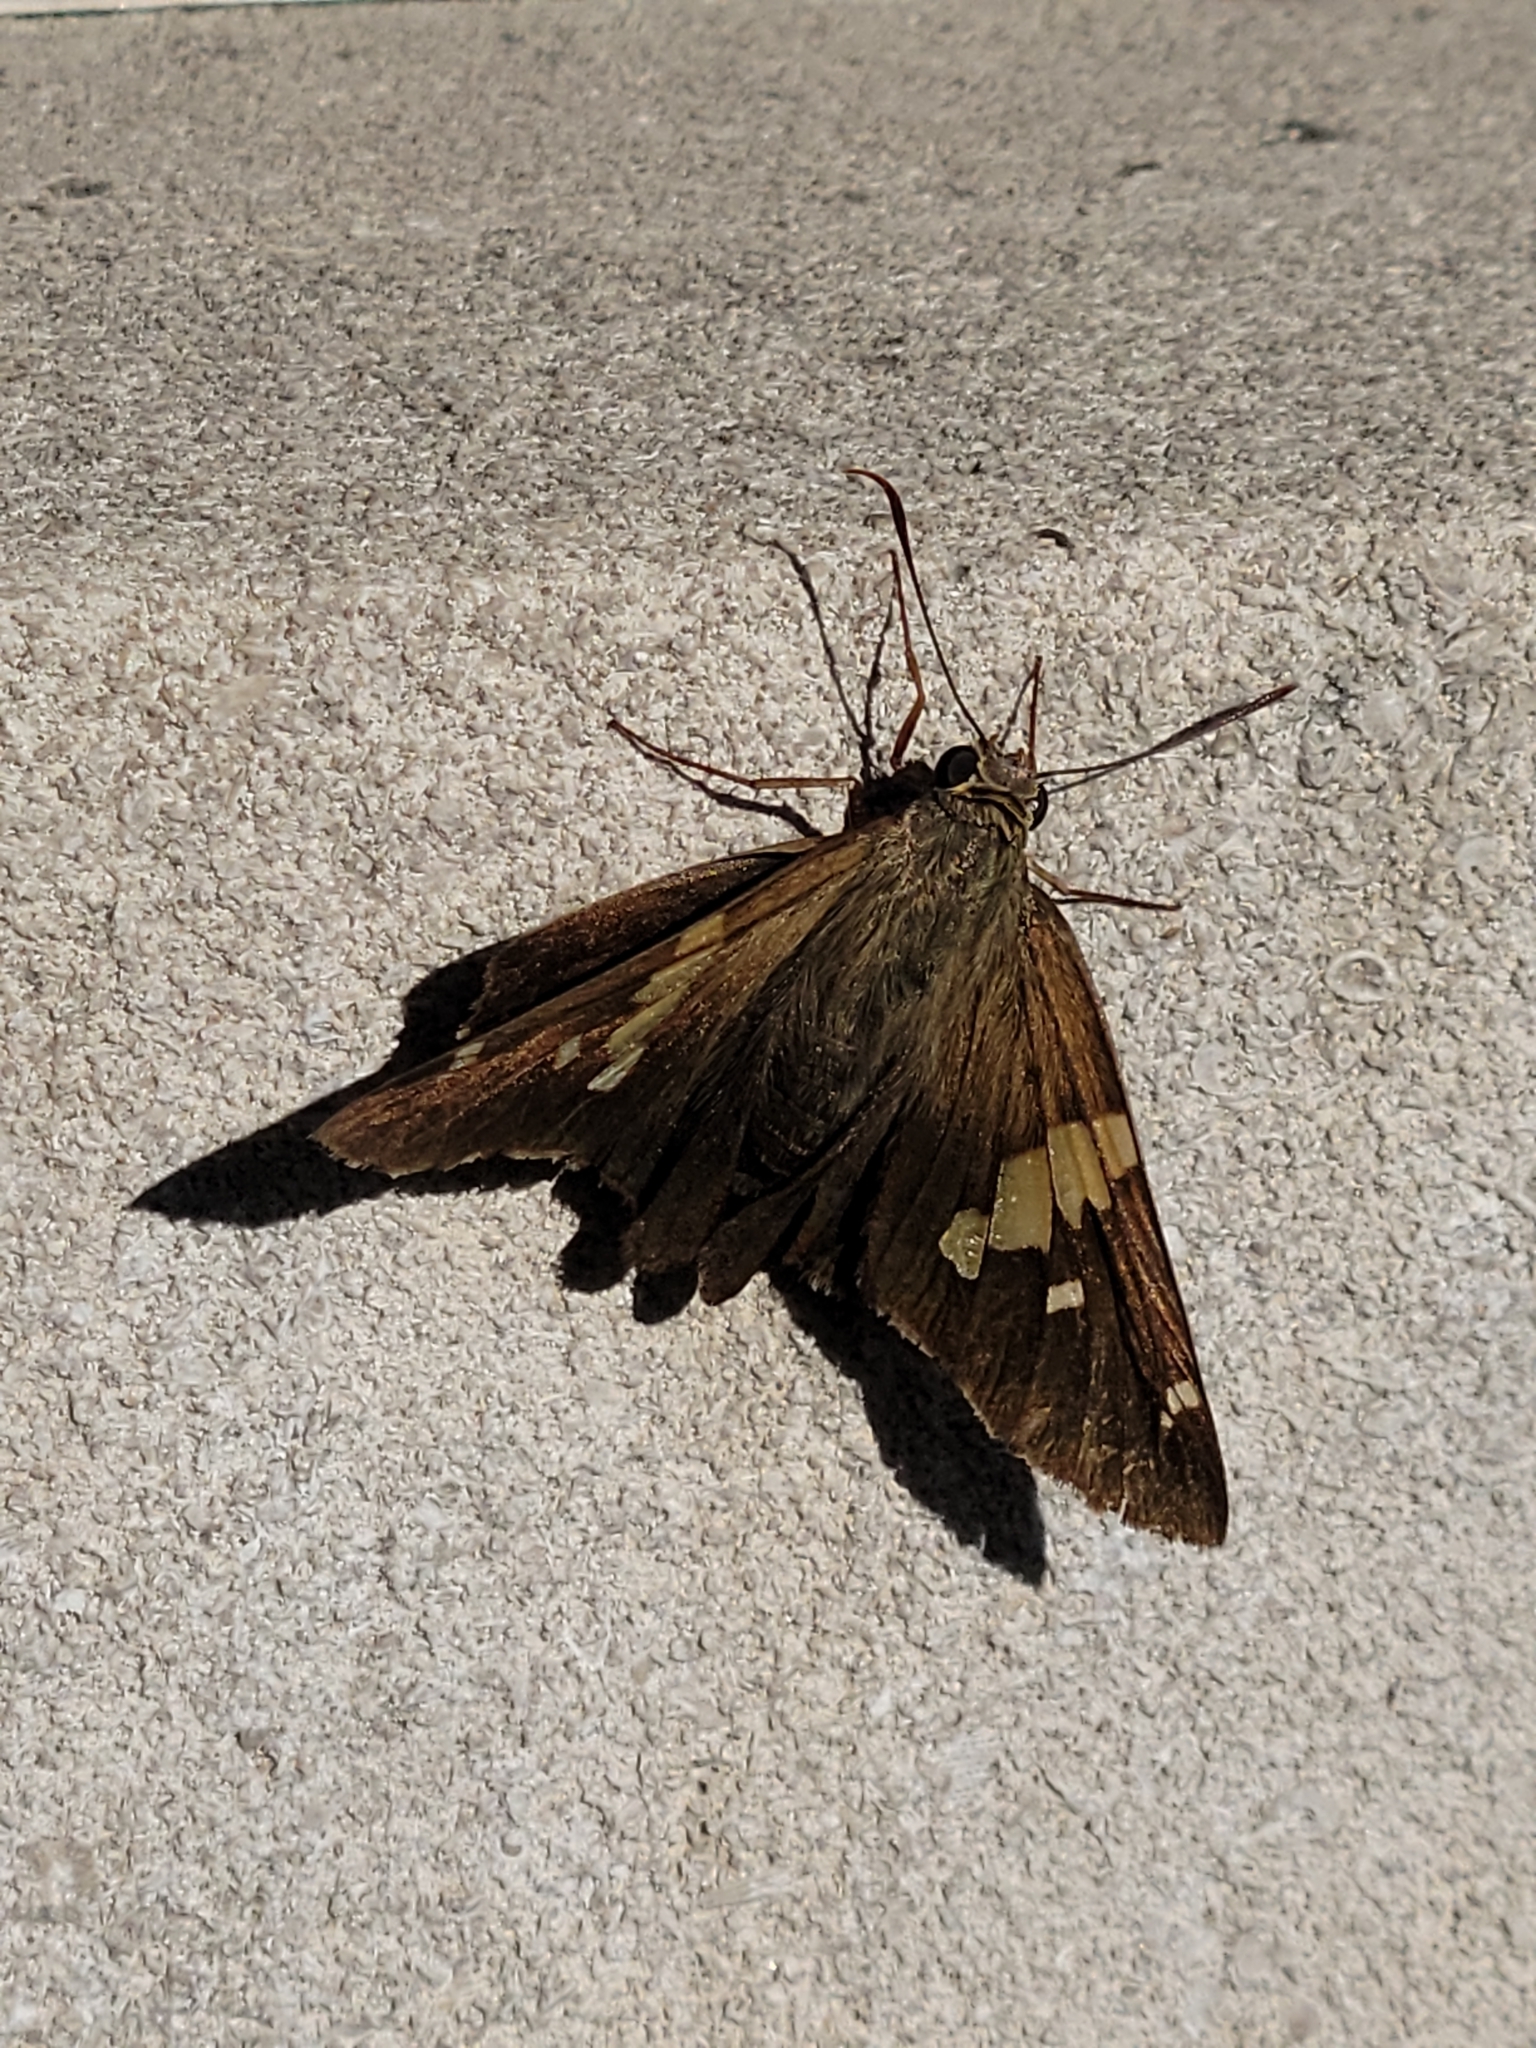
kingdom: Animalia
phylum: Arthropoda
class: Insecta
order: Lepidoptera
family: Hesperiidae
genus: Epargyreus
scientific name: Epargyreus clarus
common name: Silver-spotted skipper
